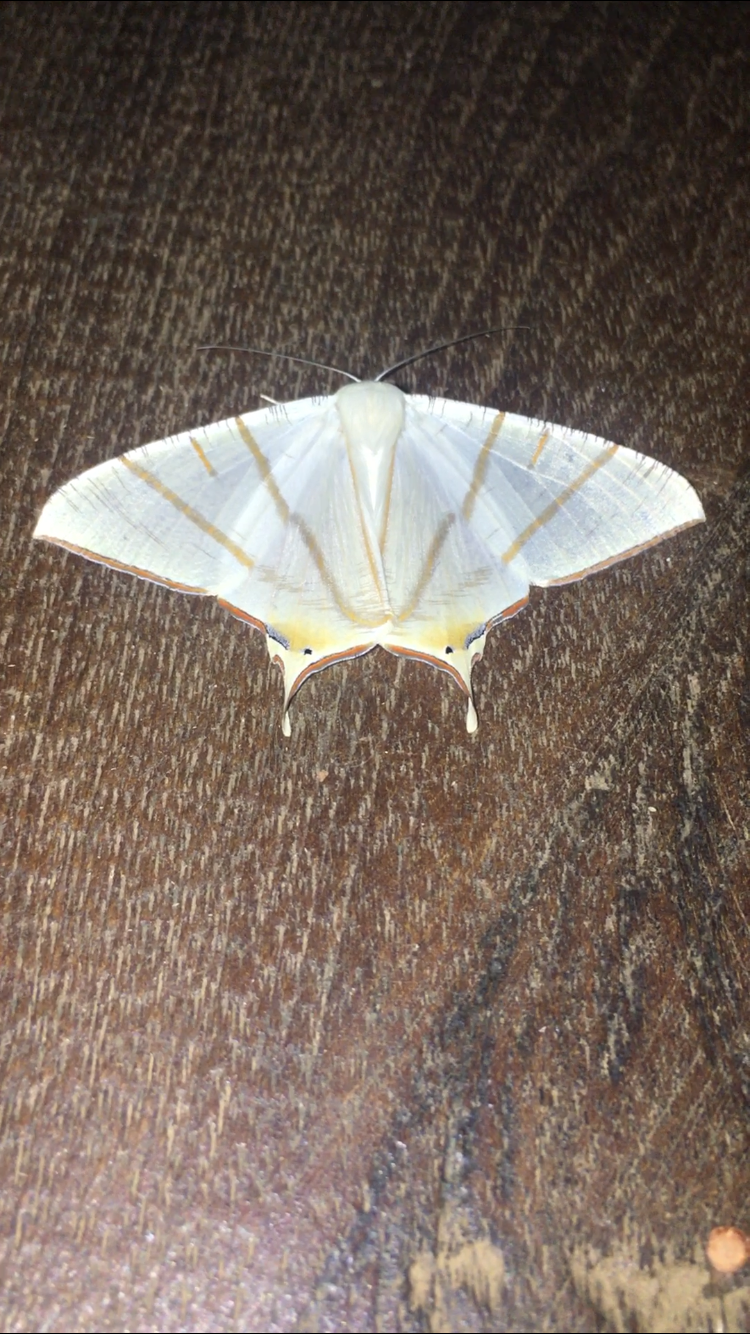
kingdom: Animalia
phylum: Arthropoda
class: Insecta
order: Lepidoptera
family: Geometridae
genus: Ourapteryx
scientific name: Ourapteryx clara
